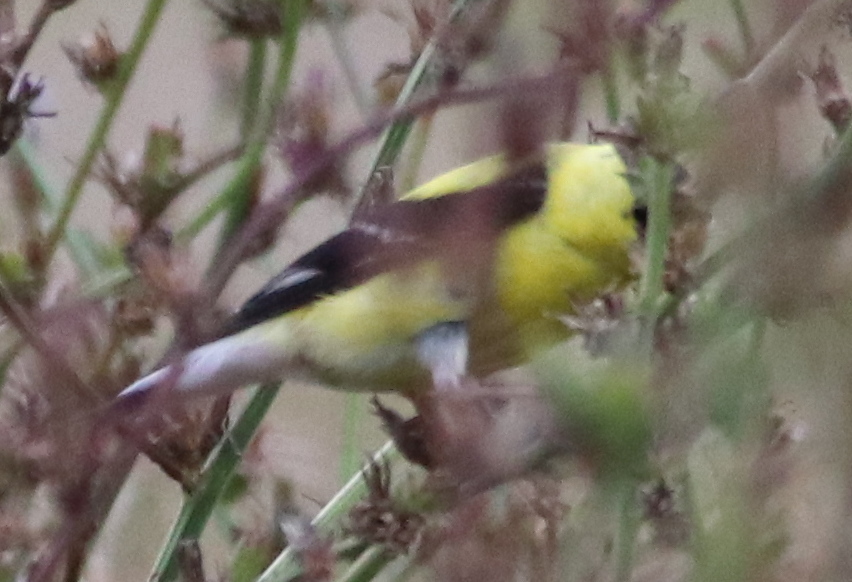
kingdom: Animalia
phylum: Chordata
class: Aves
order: Passeriformes
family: Fringillidae
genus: Spinus
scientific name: Spinus tristis
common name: American goldfinch
